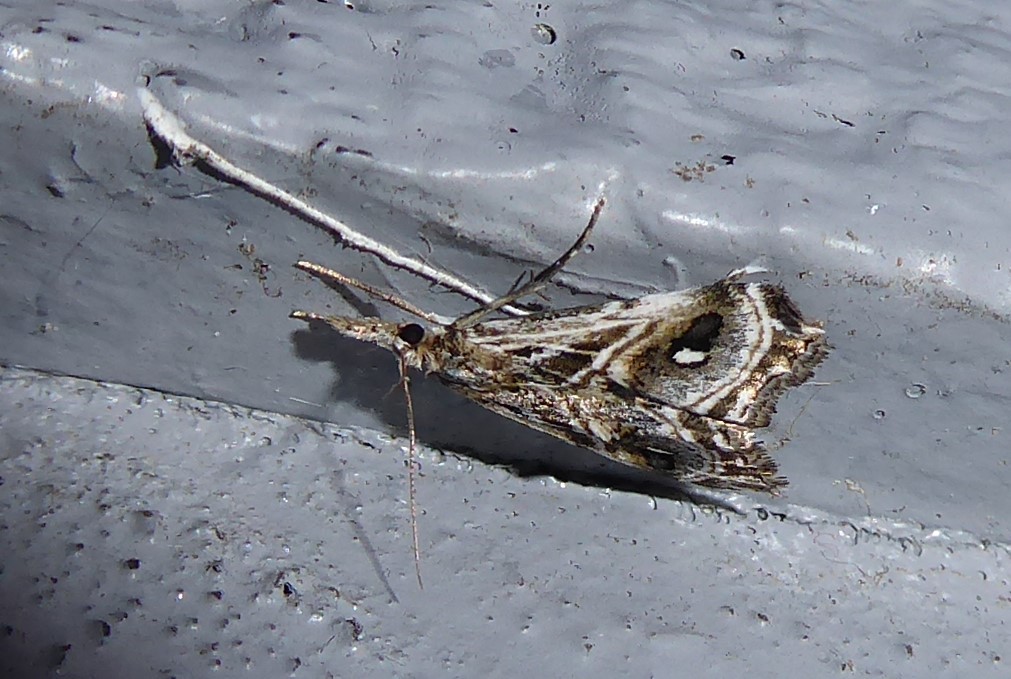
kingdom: Animalia
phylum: Arthropoda
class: Insecta
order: Lepidoptera
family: Crambidae
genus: Gadira
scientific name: Gadira acerella
